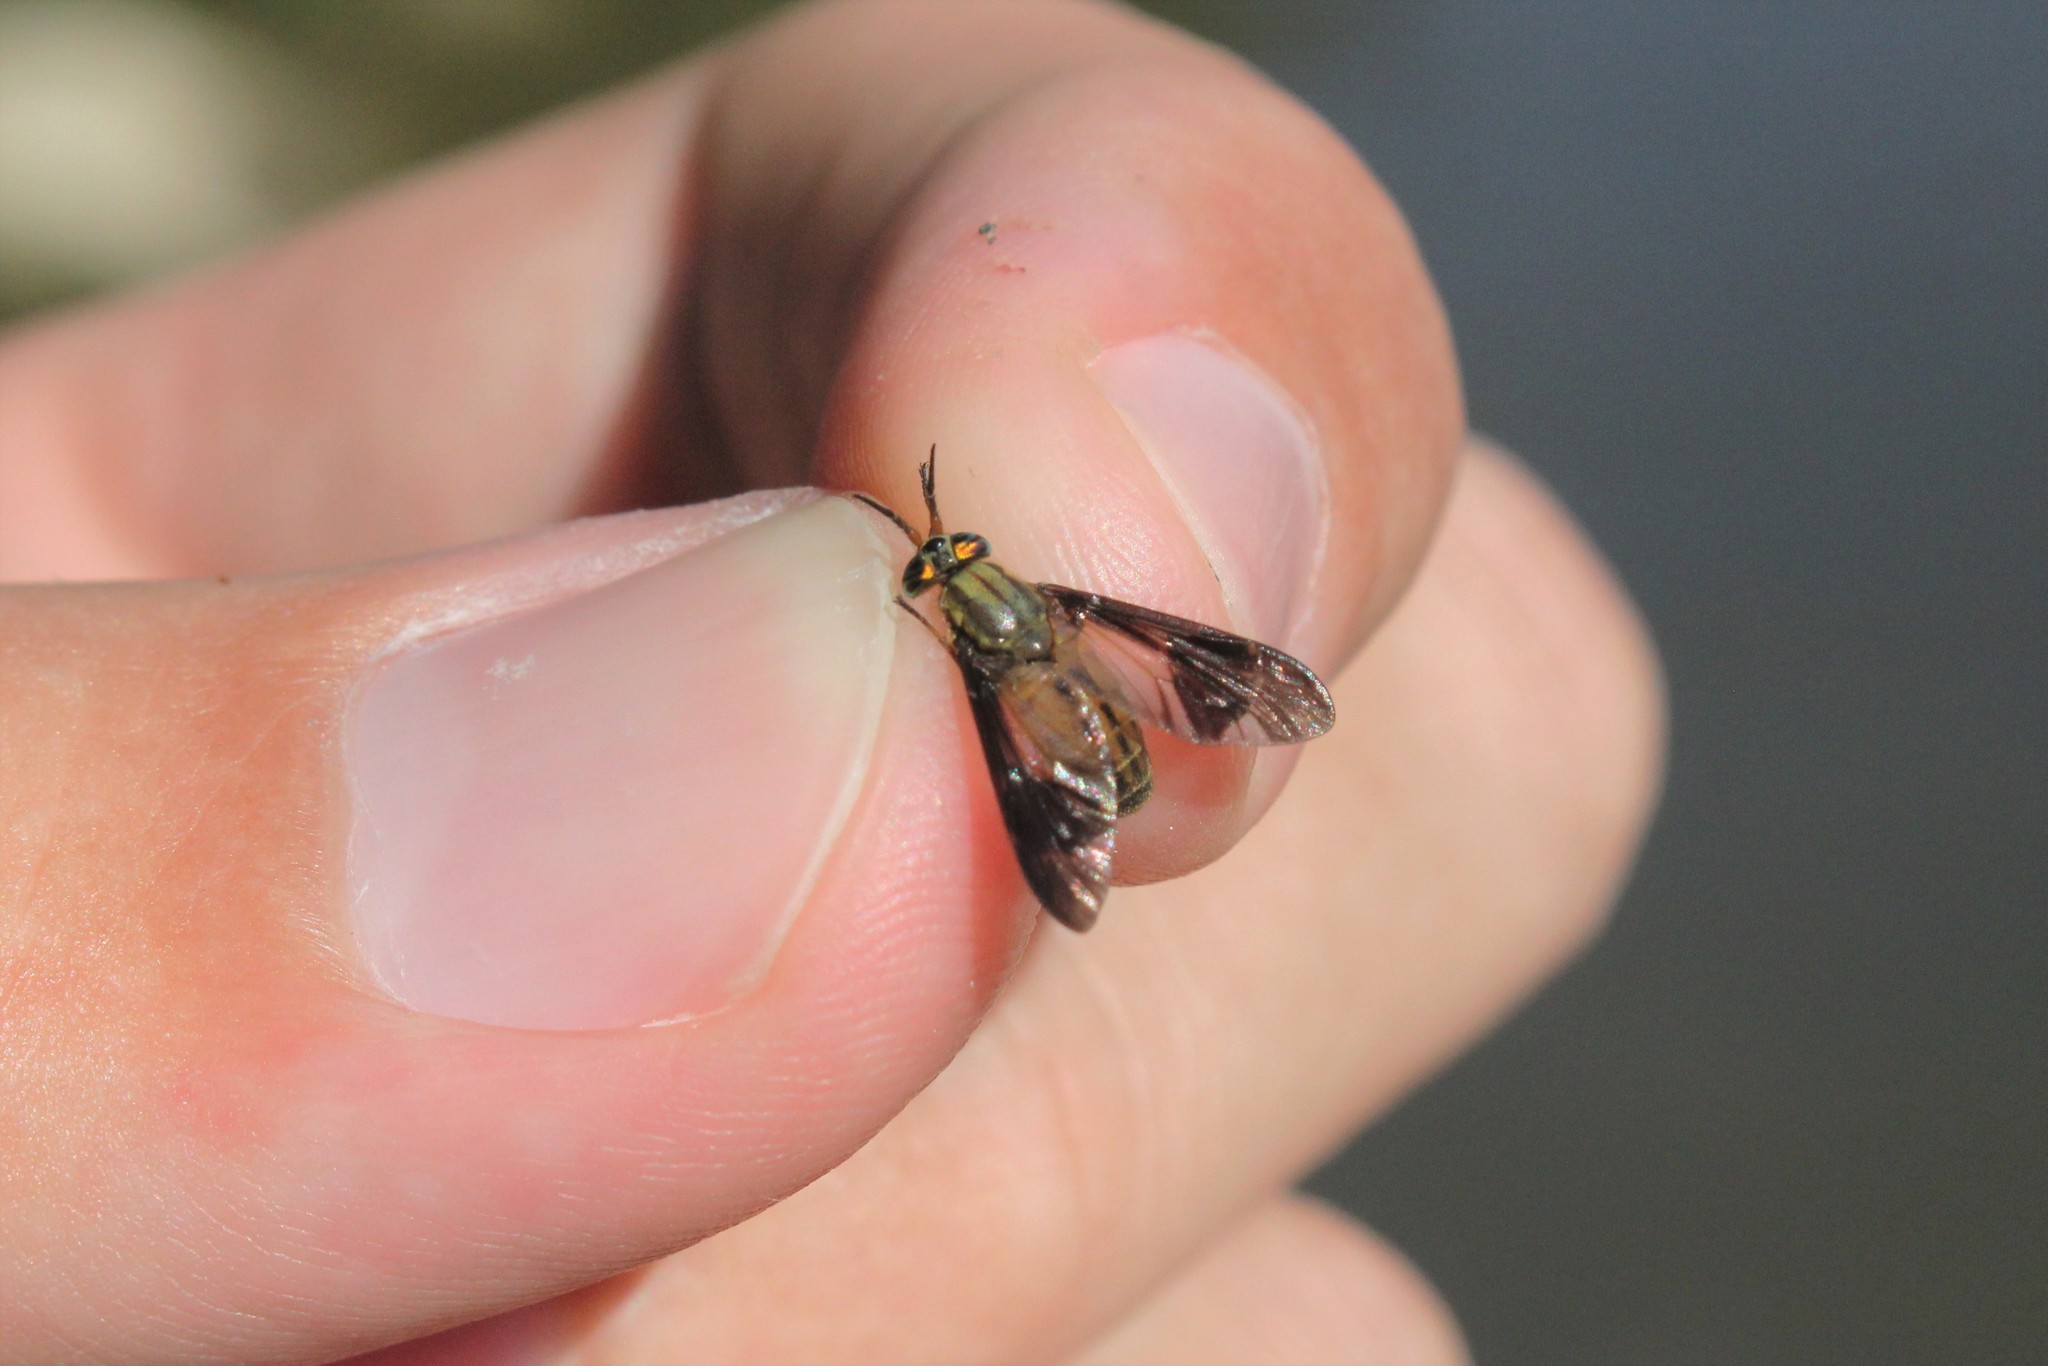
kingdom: Animalia
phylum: Arthropoda
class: Insecta
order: Diptera
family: Tabanidae
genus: Chrysops
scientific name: Chrysops moechus
